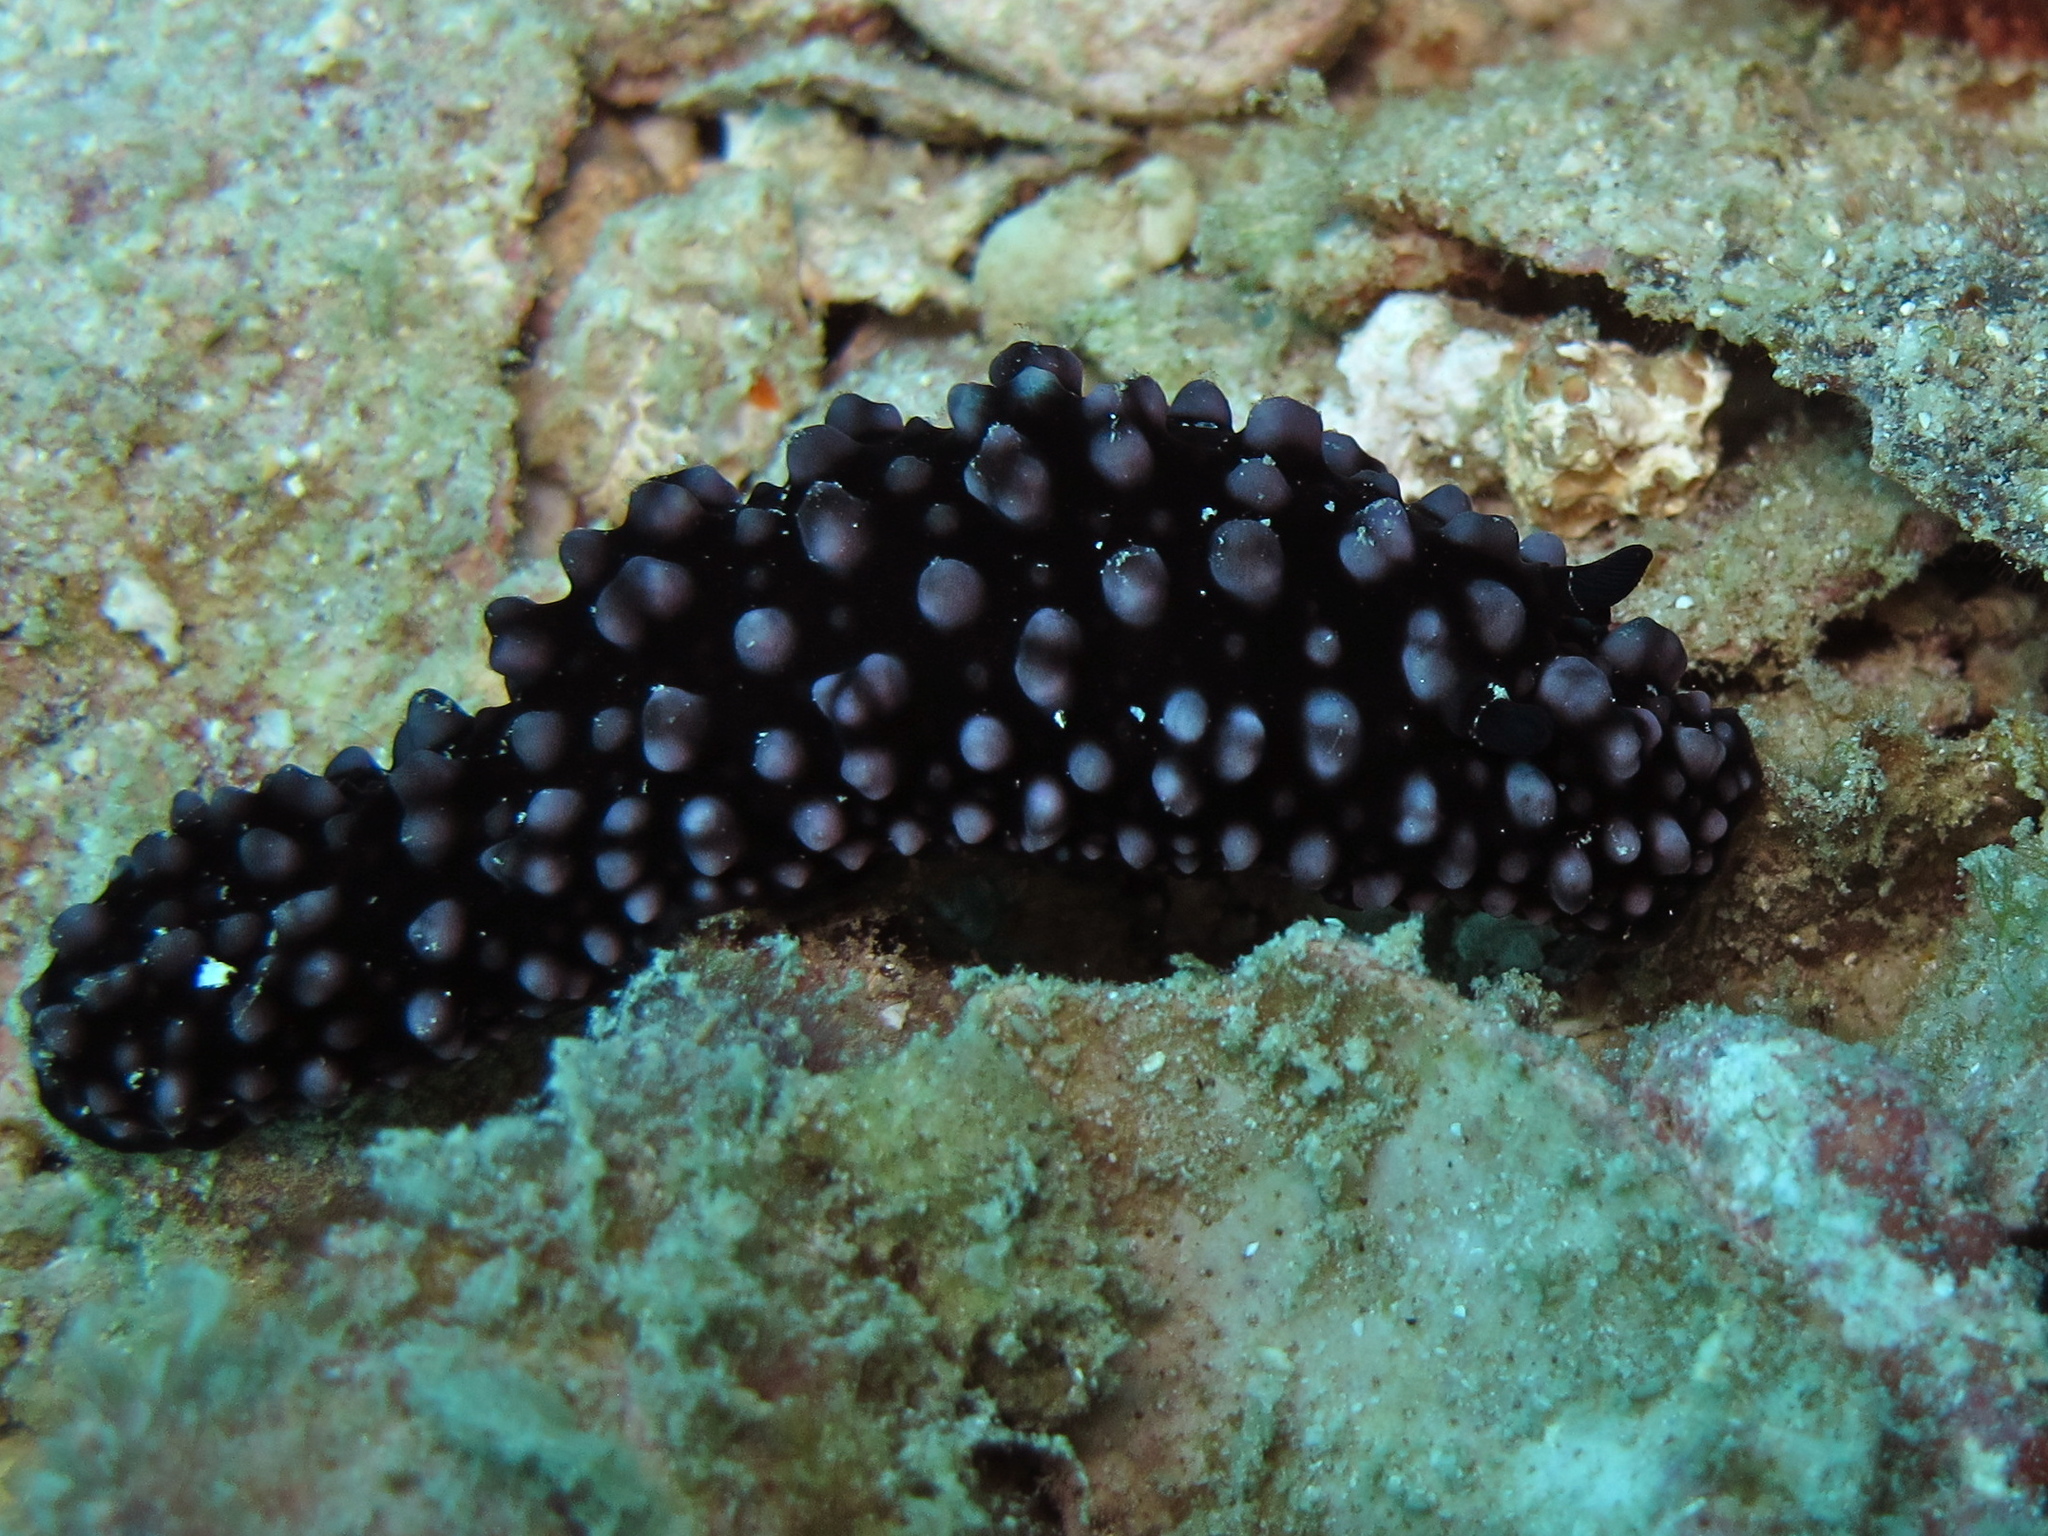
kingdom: Animalia
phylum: Mollusca
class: Gastropoda
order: Nudibranchia
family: Phyllidiidae
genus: Phyllidiella
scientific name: Phyllidiella nigra
